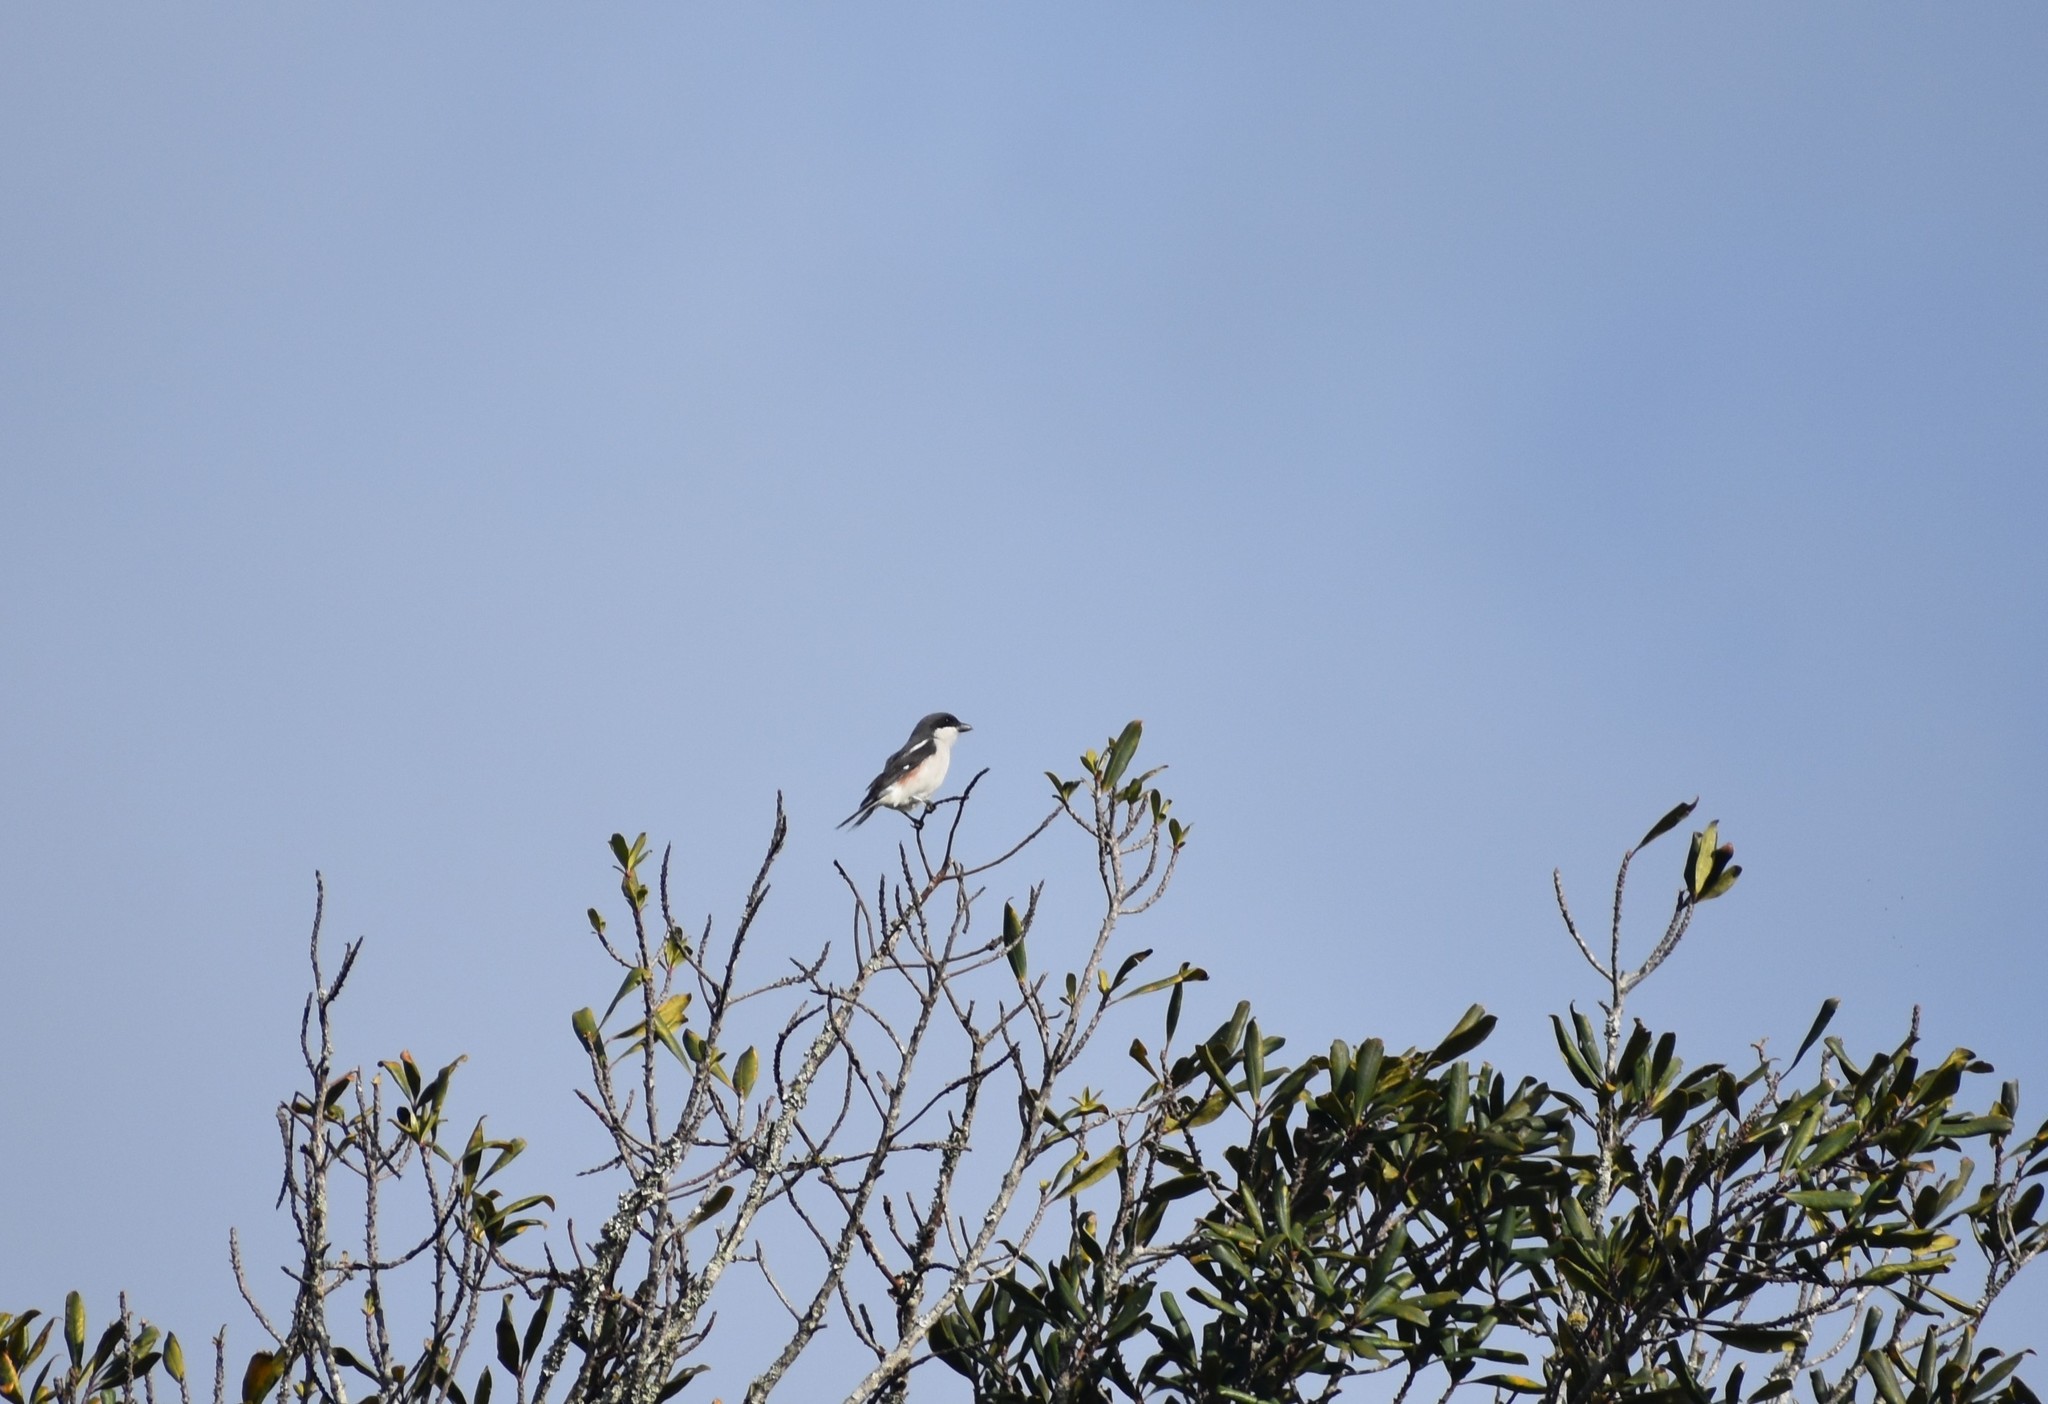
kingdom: Animalia
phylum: Chordata
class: Aves
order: Passeriformes
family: Laniidae
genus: Lanius
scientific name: Lanius collaris
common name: Southern fiscal
